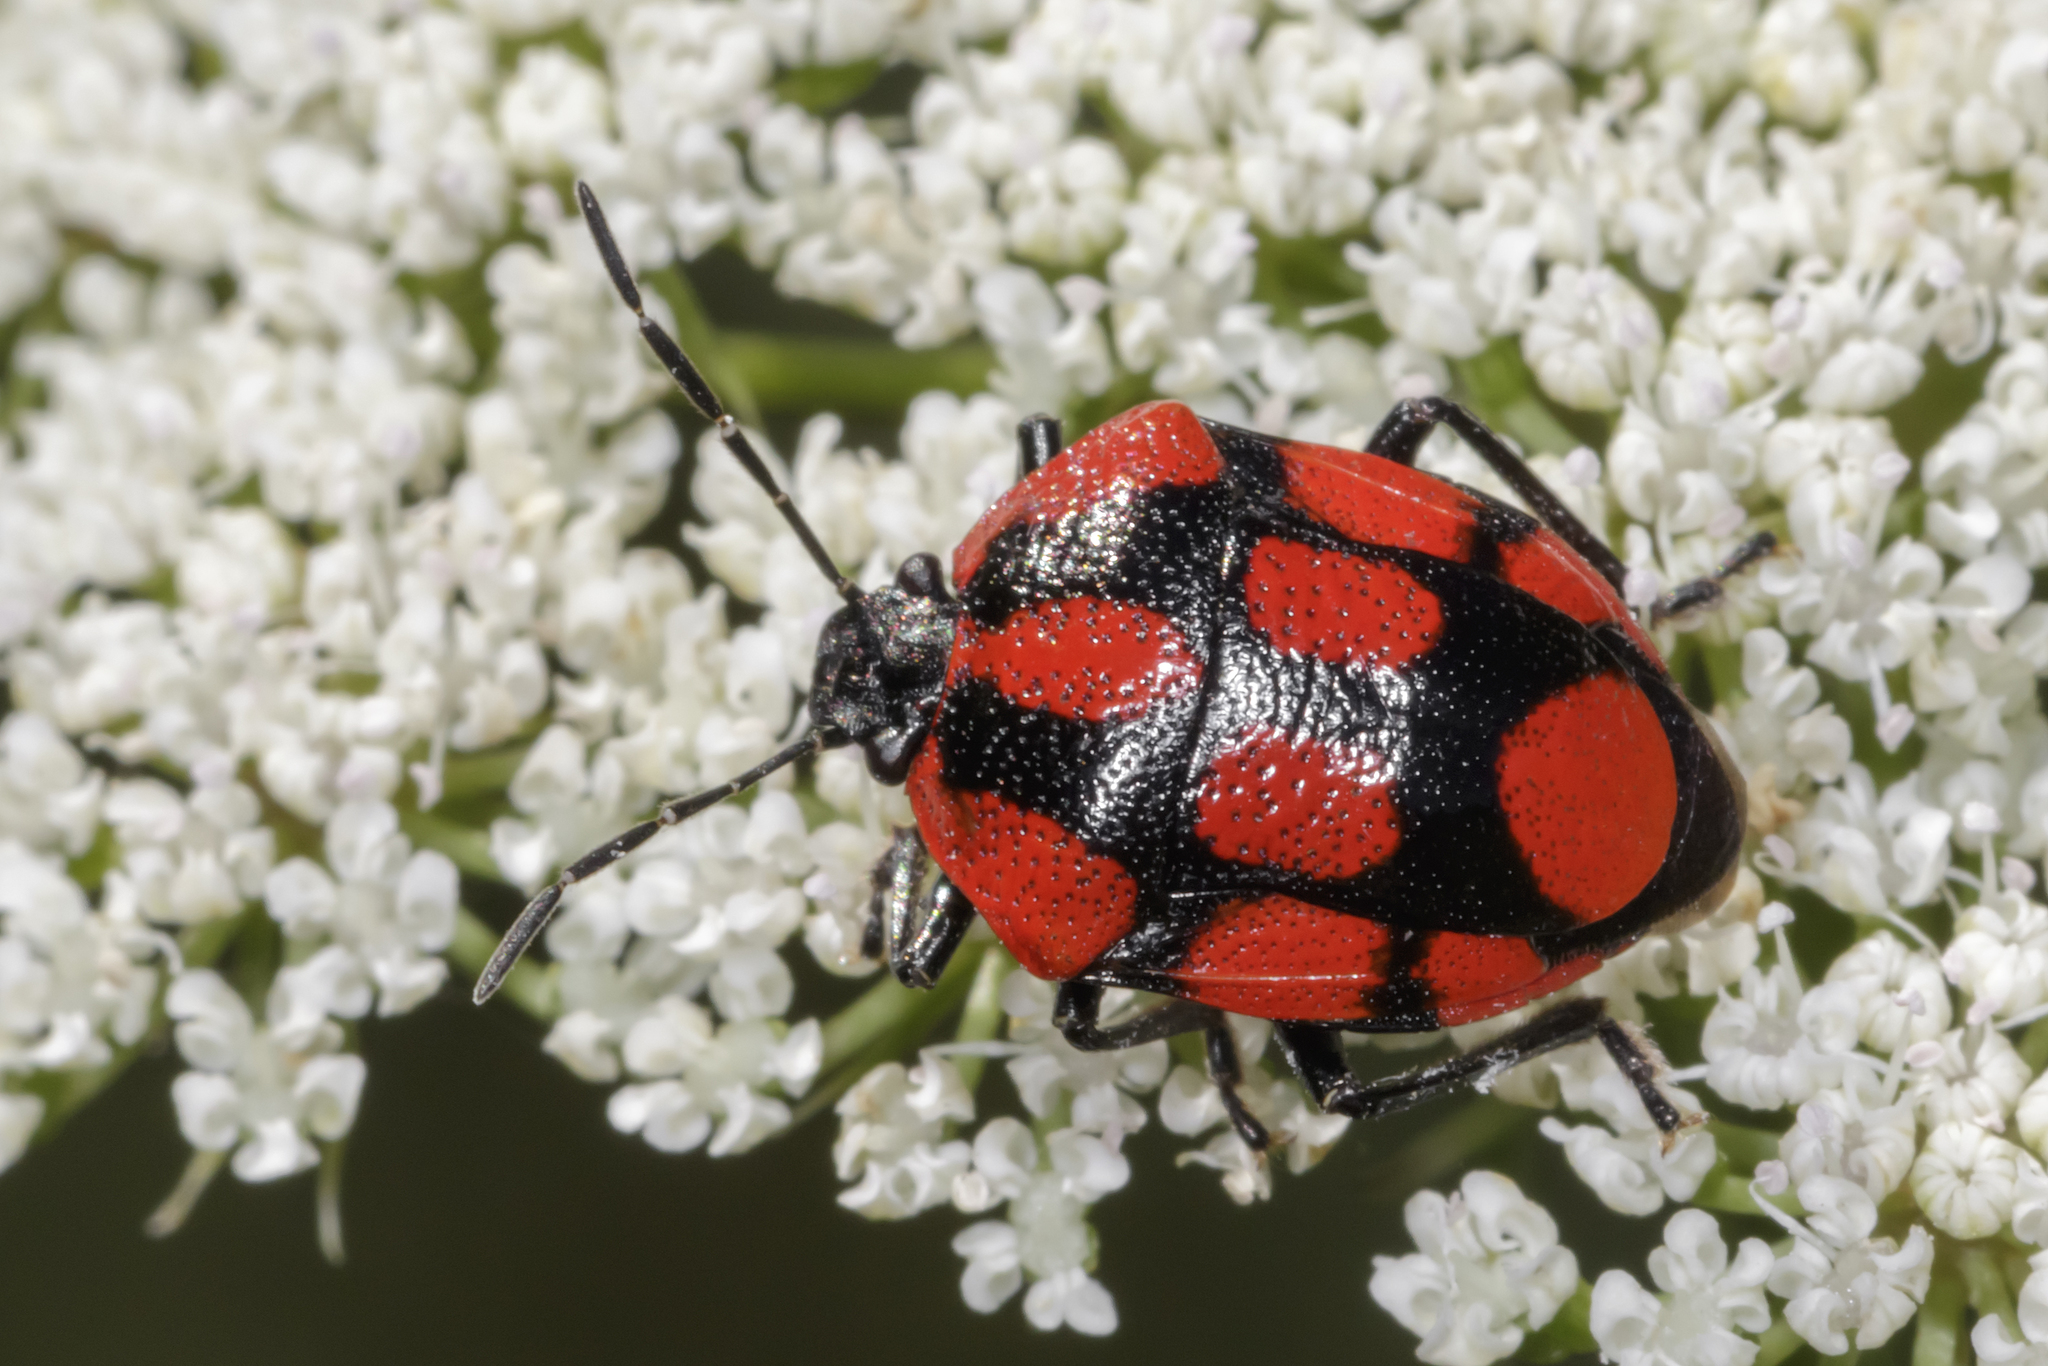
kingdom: Animalia
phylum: Arthropoda
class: Insecta
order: Hemiptera
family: Pentatomidae
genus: Stiretrus
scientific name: Stiretrus
